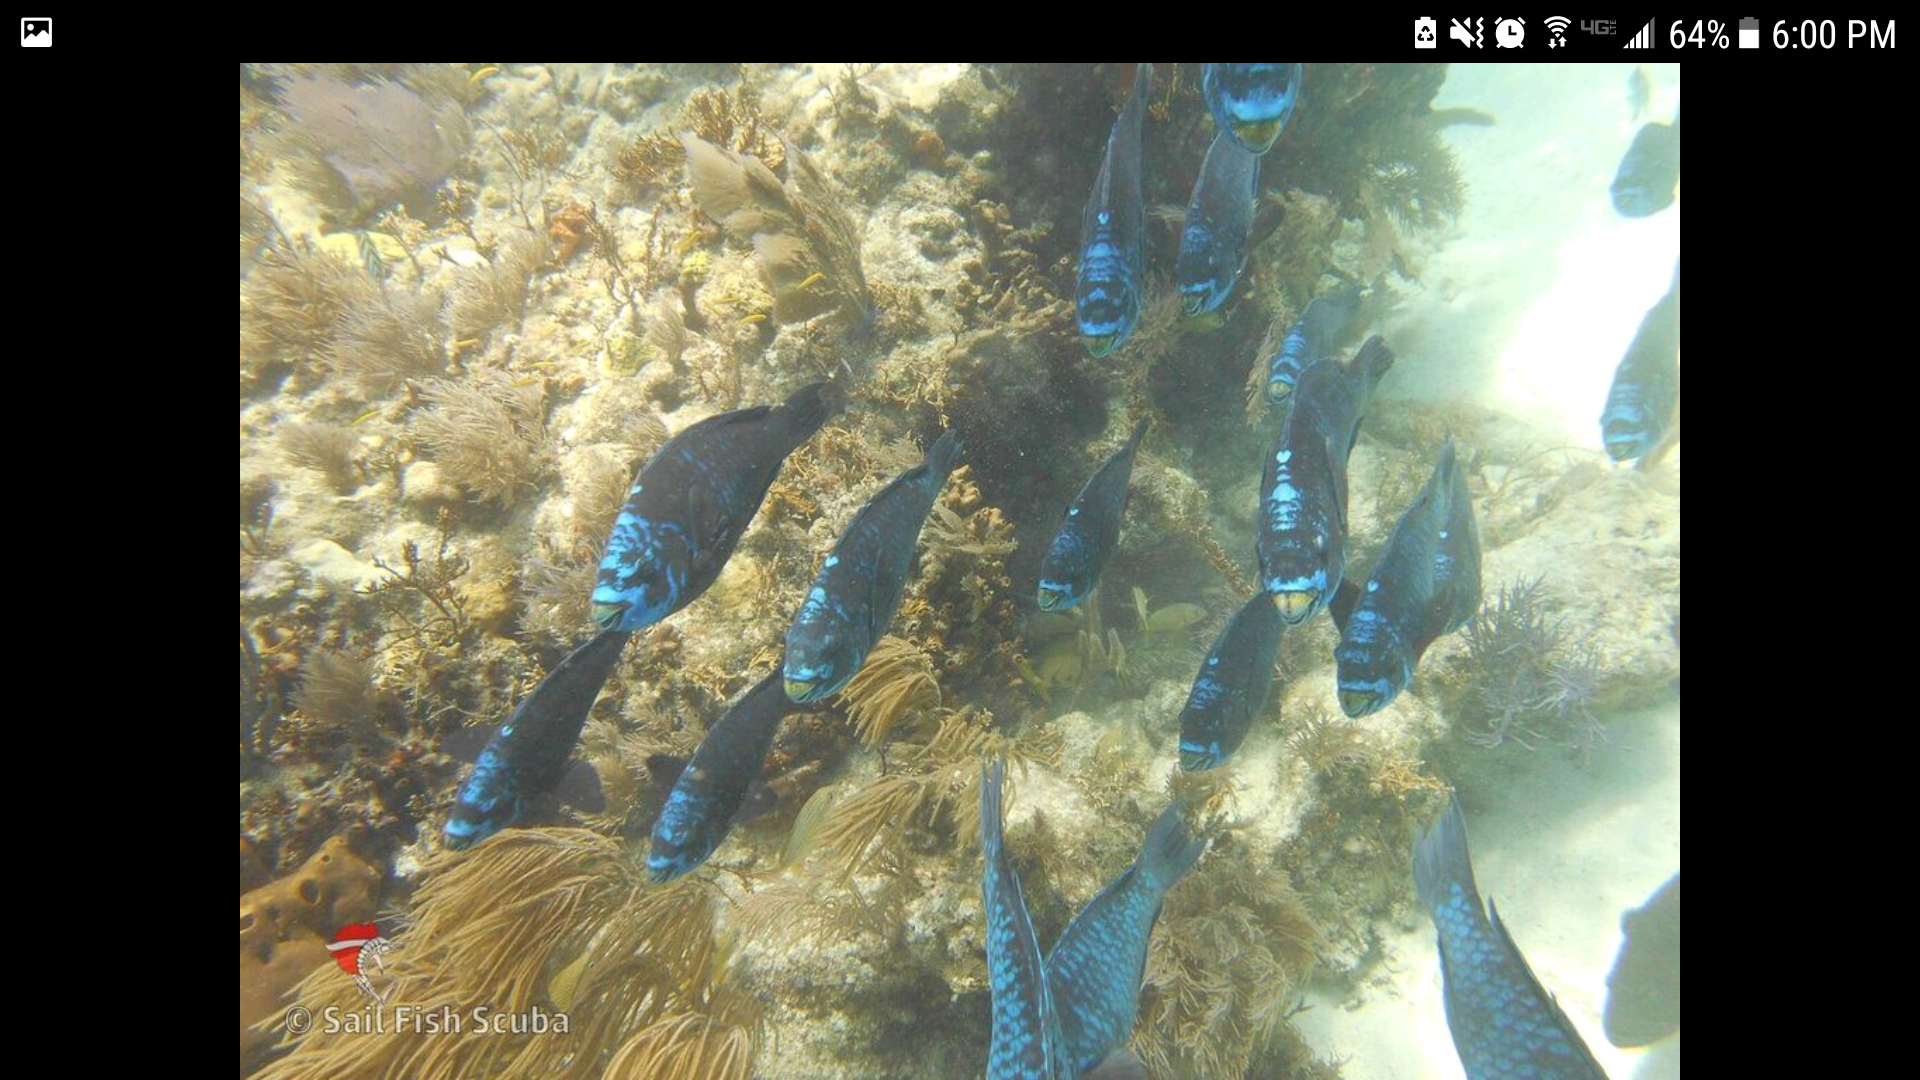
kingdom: Animalia
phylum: Chordata
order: Perciformes
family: Scaridae
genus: Scarus
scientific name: Scarus coelestinus
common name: Midnight parrotfish
